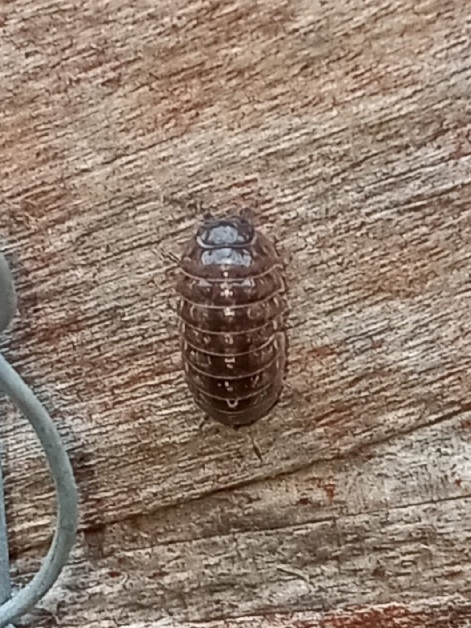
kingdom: Animalia
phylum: Arthropoda
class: Malacostraca
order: Isopoda
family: Armadillidiidae
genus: Armadillidium
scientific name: Armadillidium vulgare
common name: Common pill woodlouse
